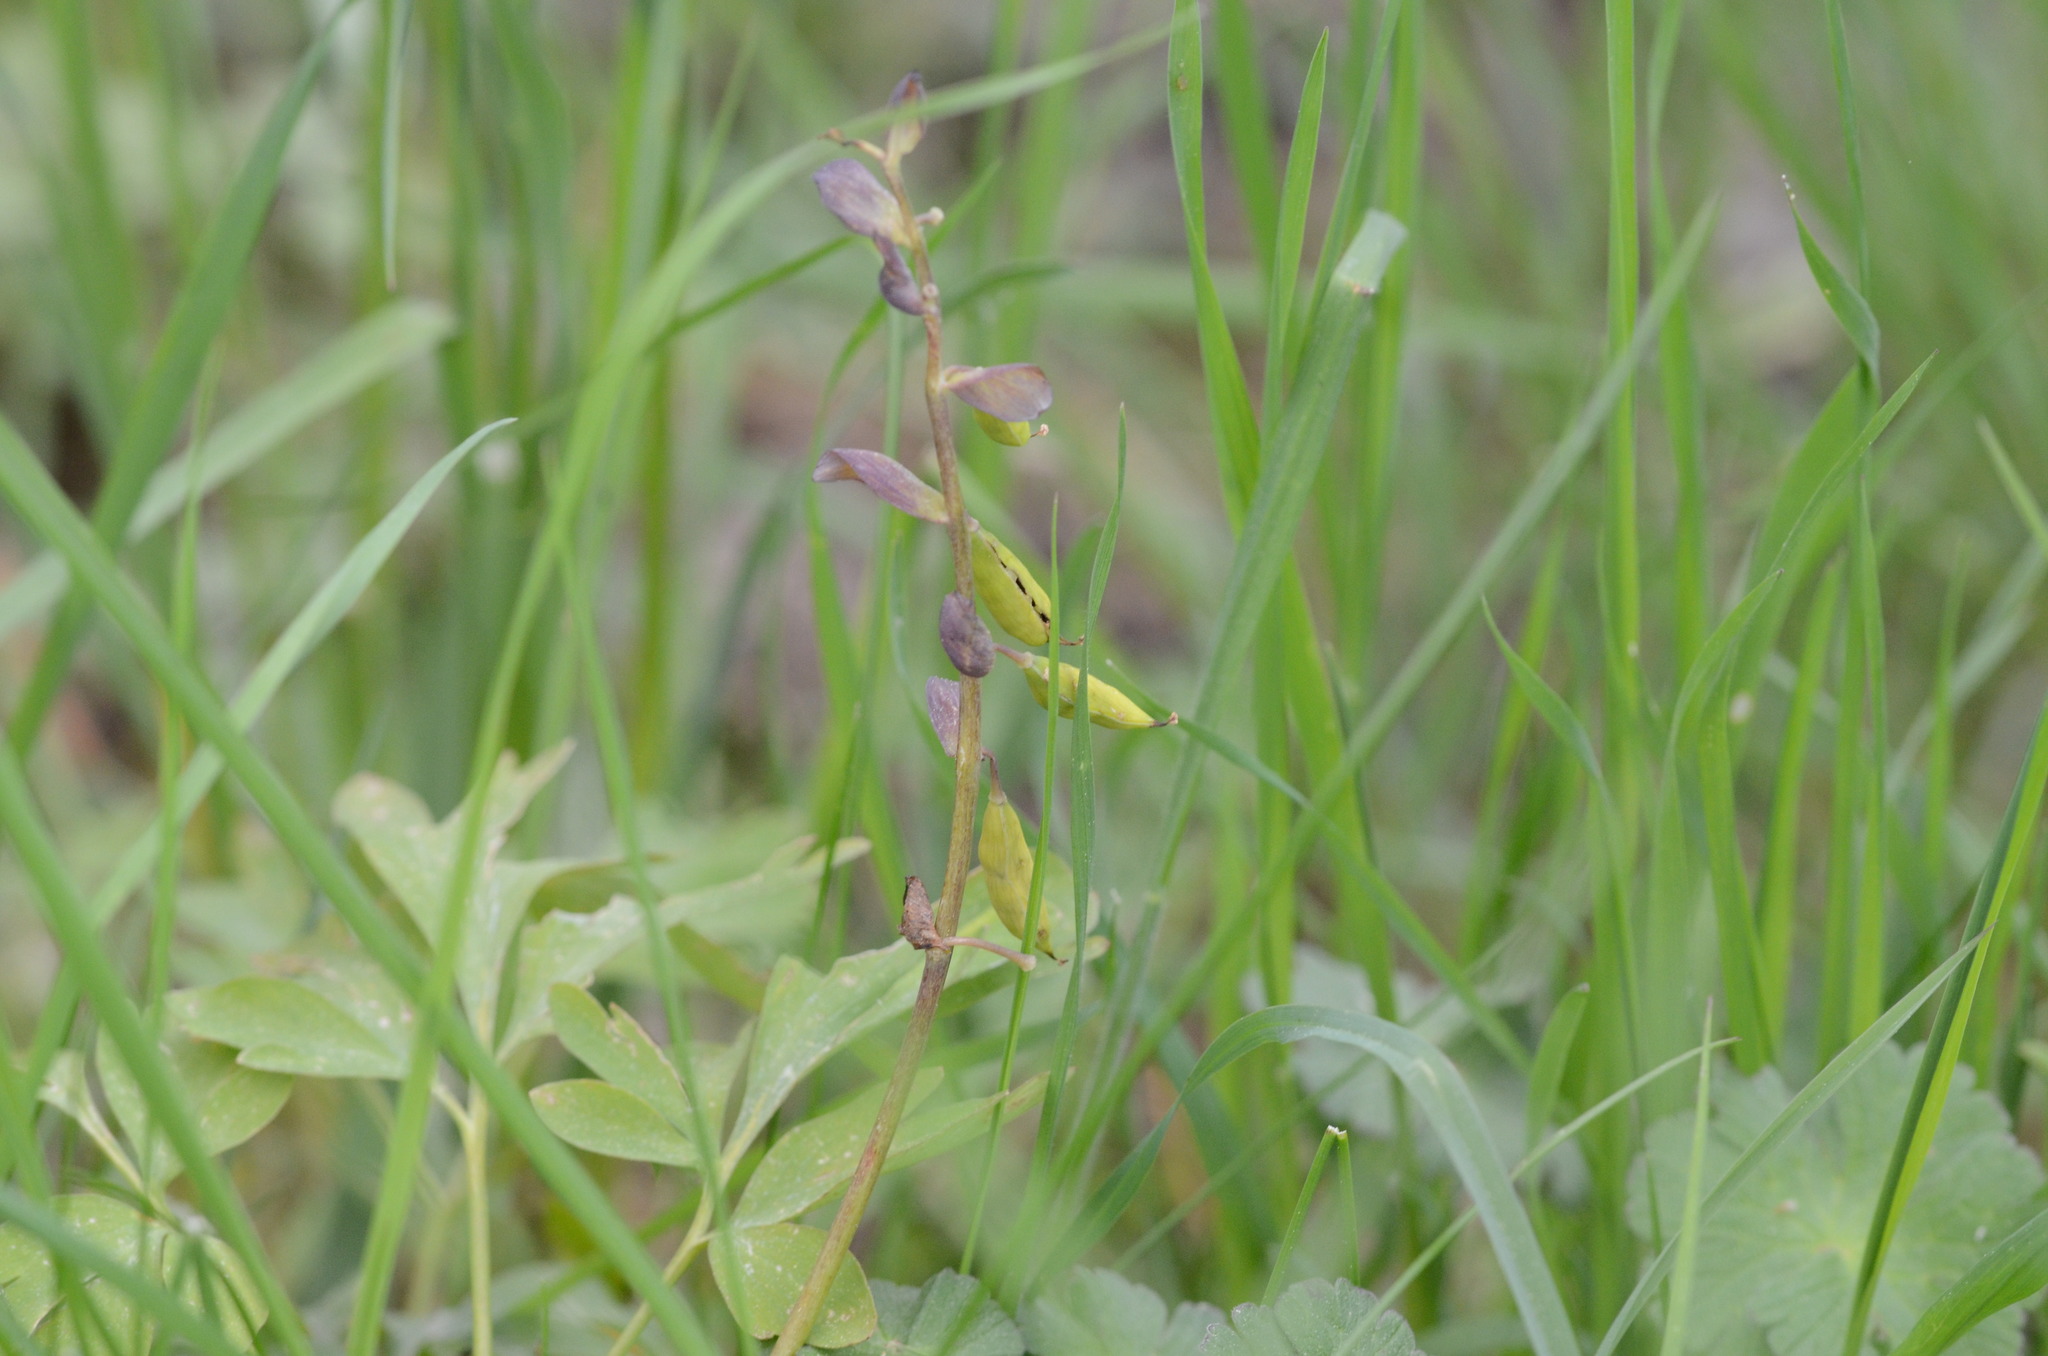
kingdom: Plantae
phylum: Tracheophyta
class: Magnoliopsida
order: Ranunculales
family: Papaveraceae
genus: Corydalis
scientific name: Corydalis cava
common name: Hollowroot
